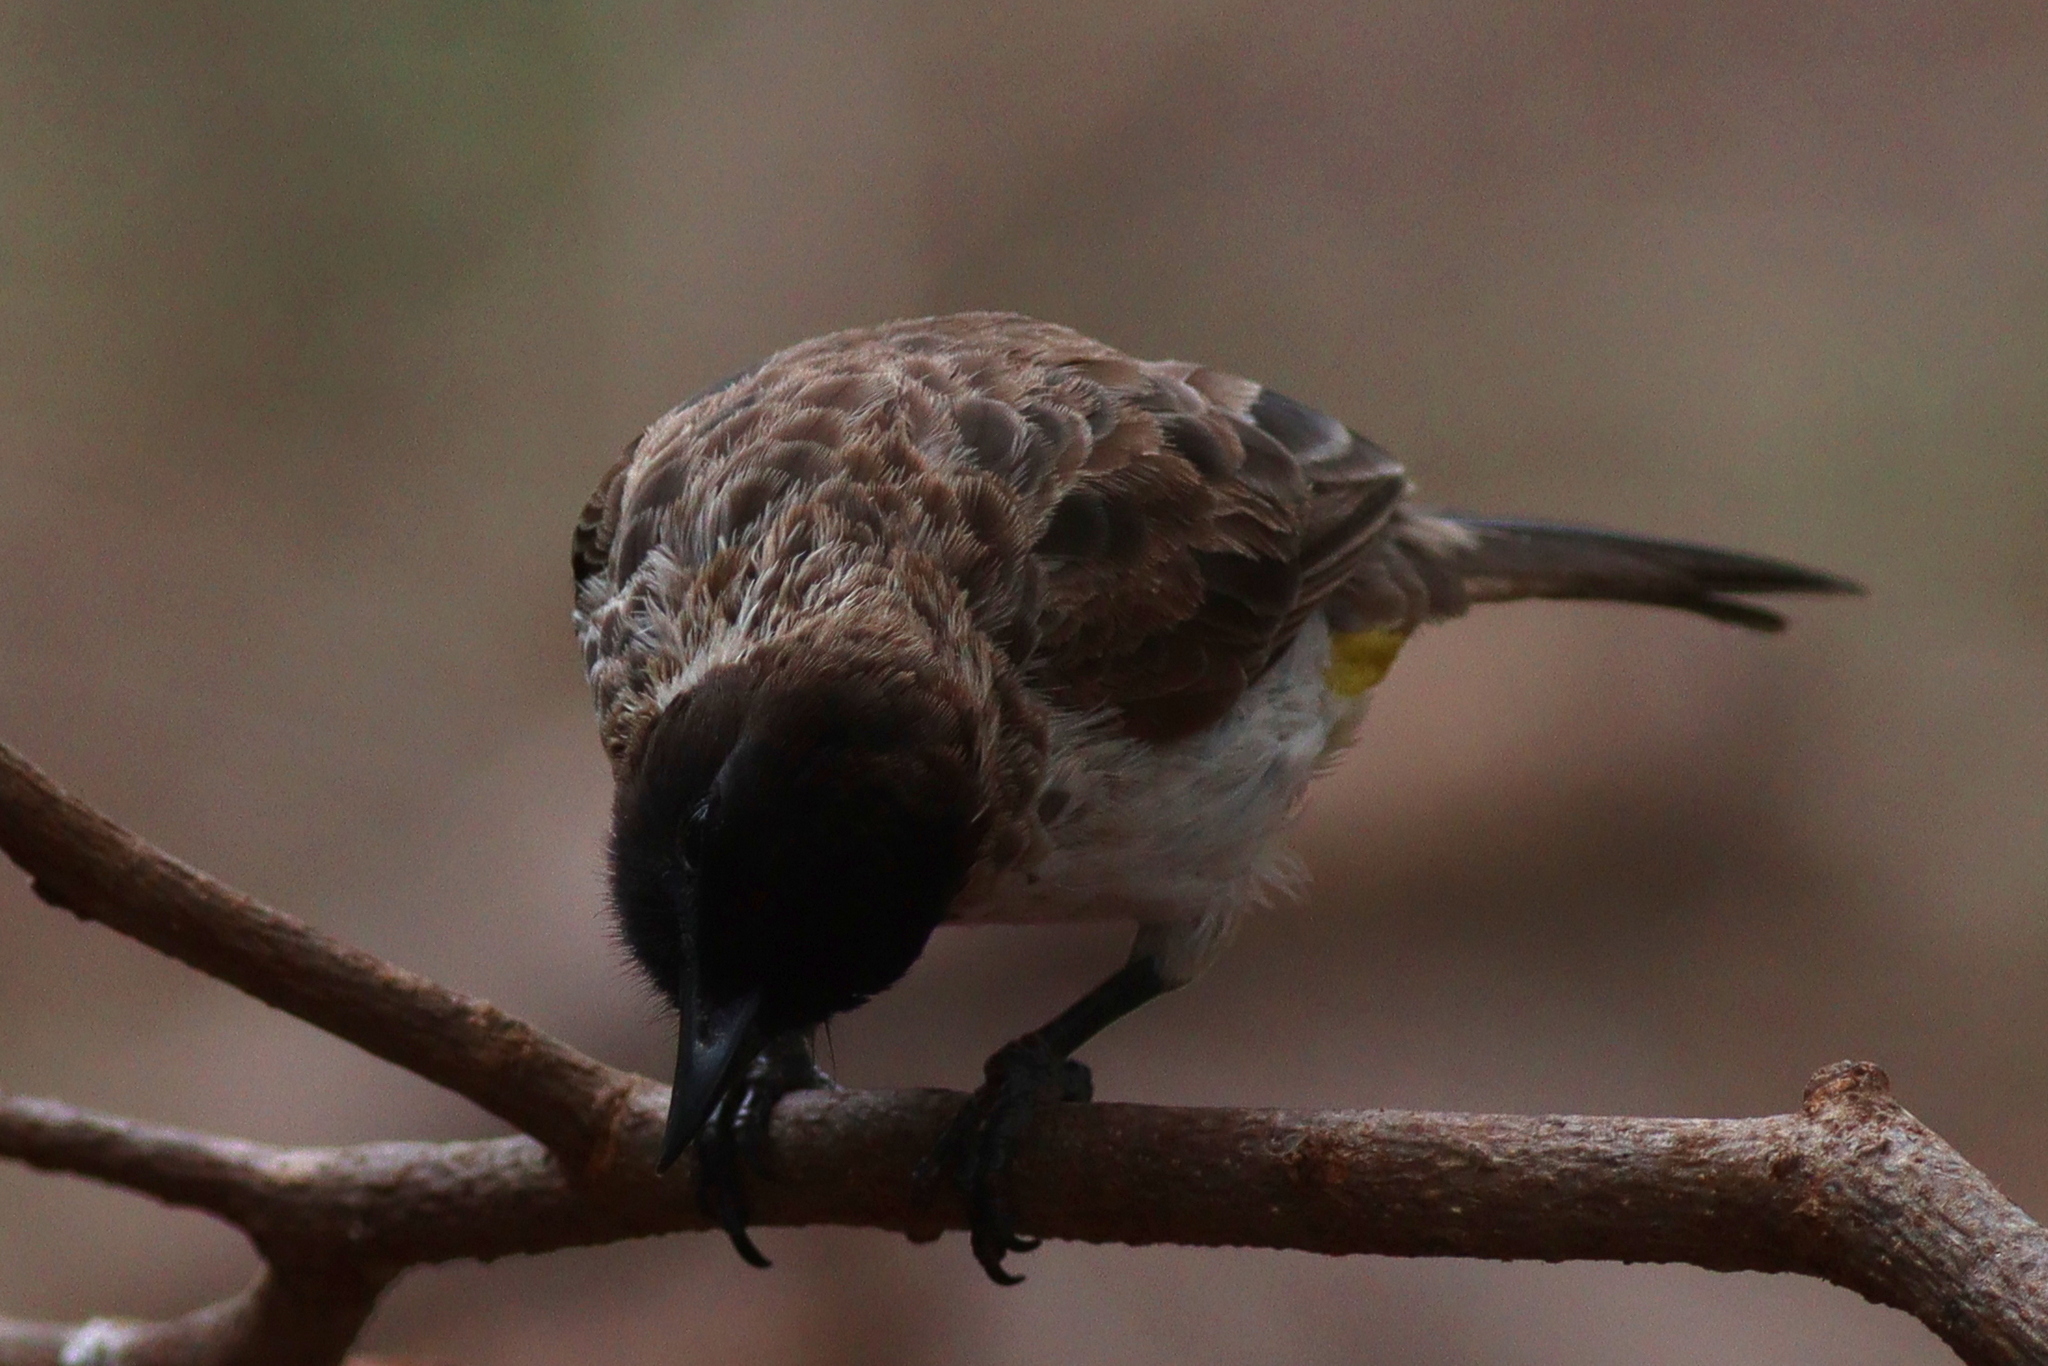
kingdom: Animalia
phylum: Chordata
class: Aves
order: Passeriformes
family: Pycnonotidae
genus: Pycnonotus
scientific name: Pycnonotus barbatus
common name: Common bulbul
